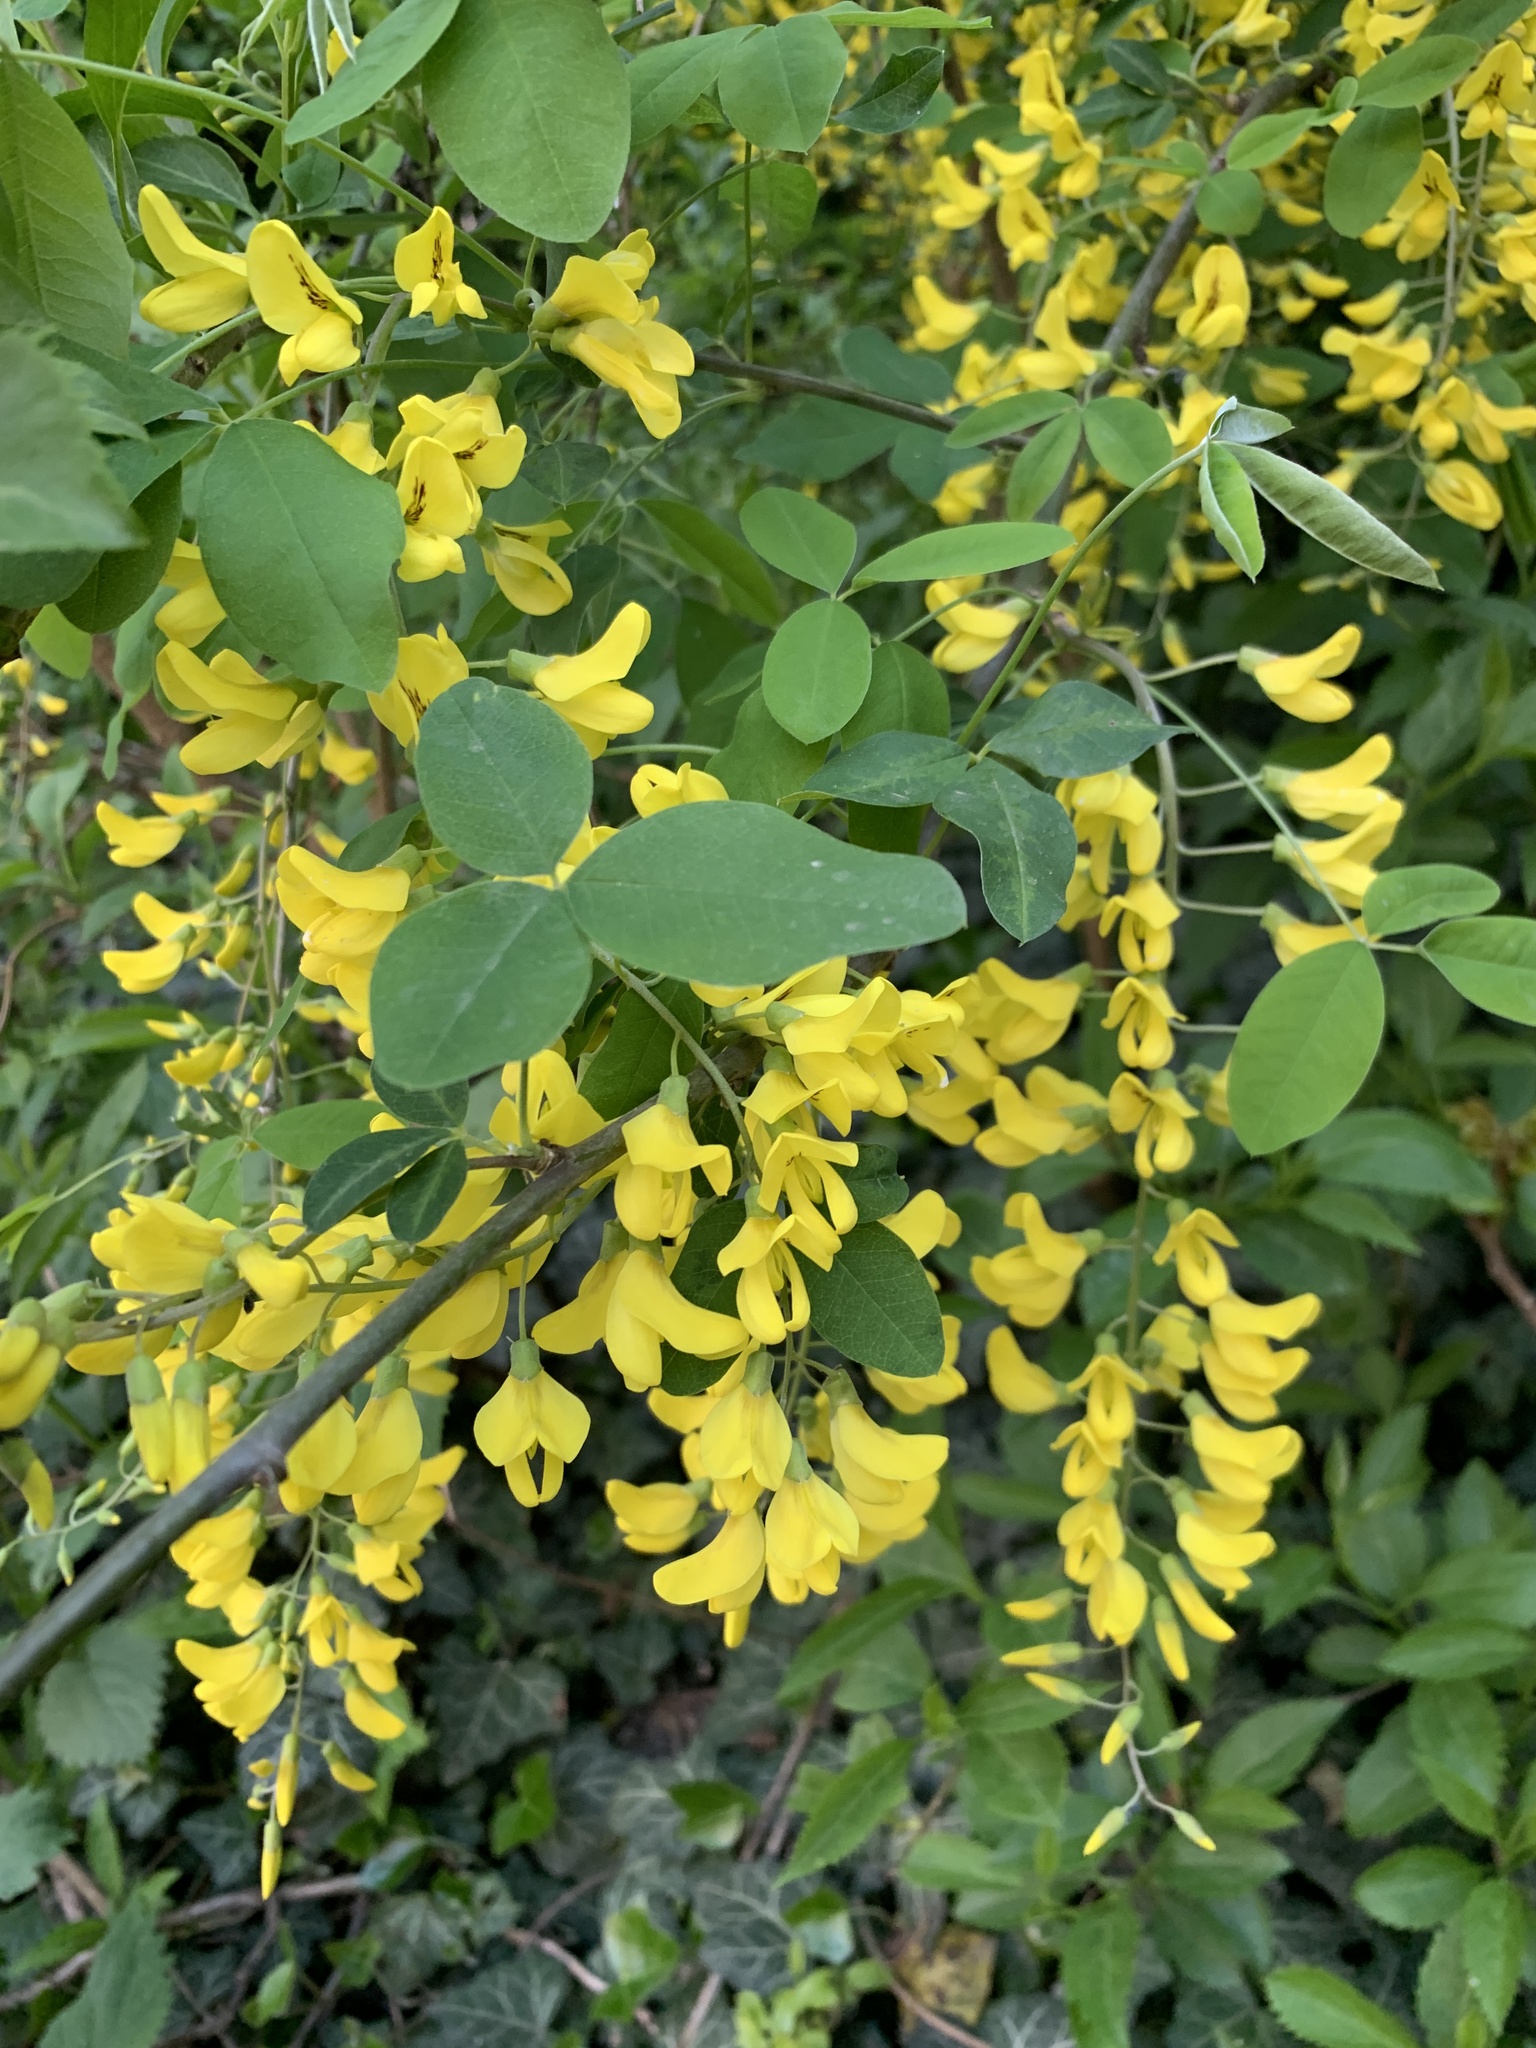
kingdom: Plantae
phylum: Tracheophyta
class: Magnoliopsida
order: Fabales
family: Fabaceae
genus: Laburnum
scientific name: Laburnum anagyroides
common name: Laburnum
